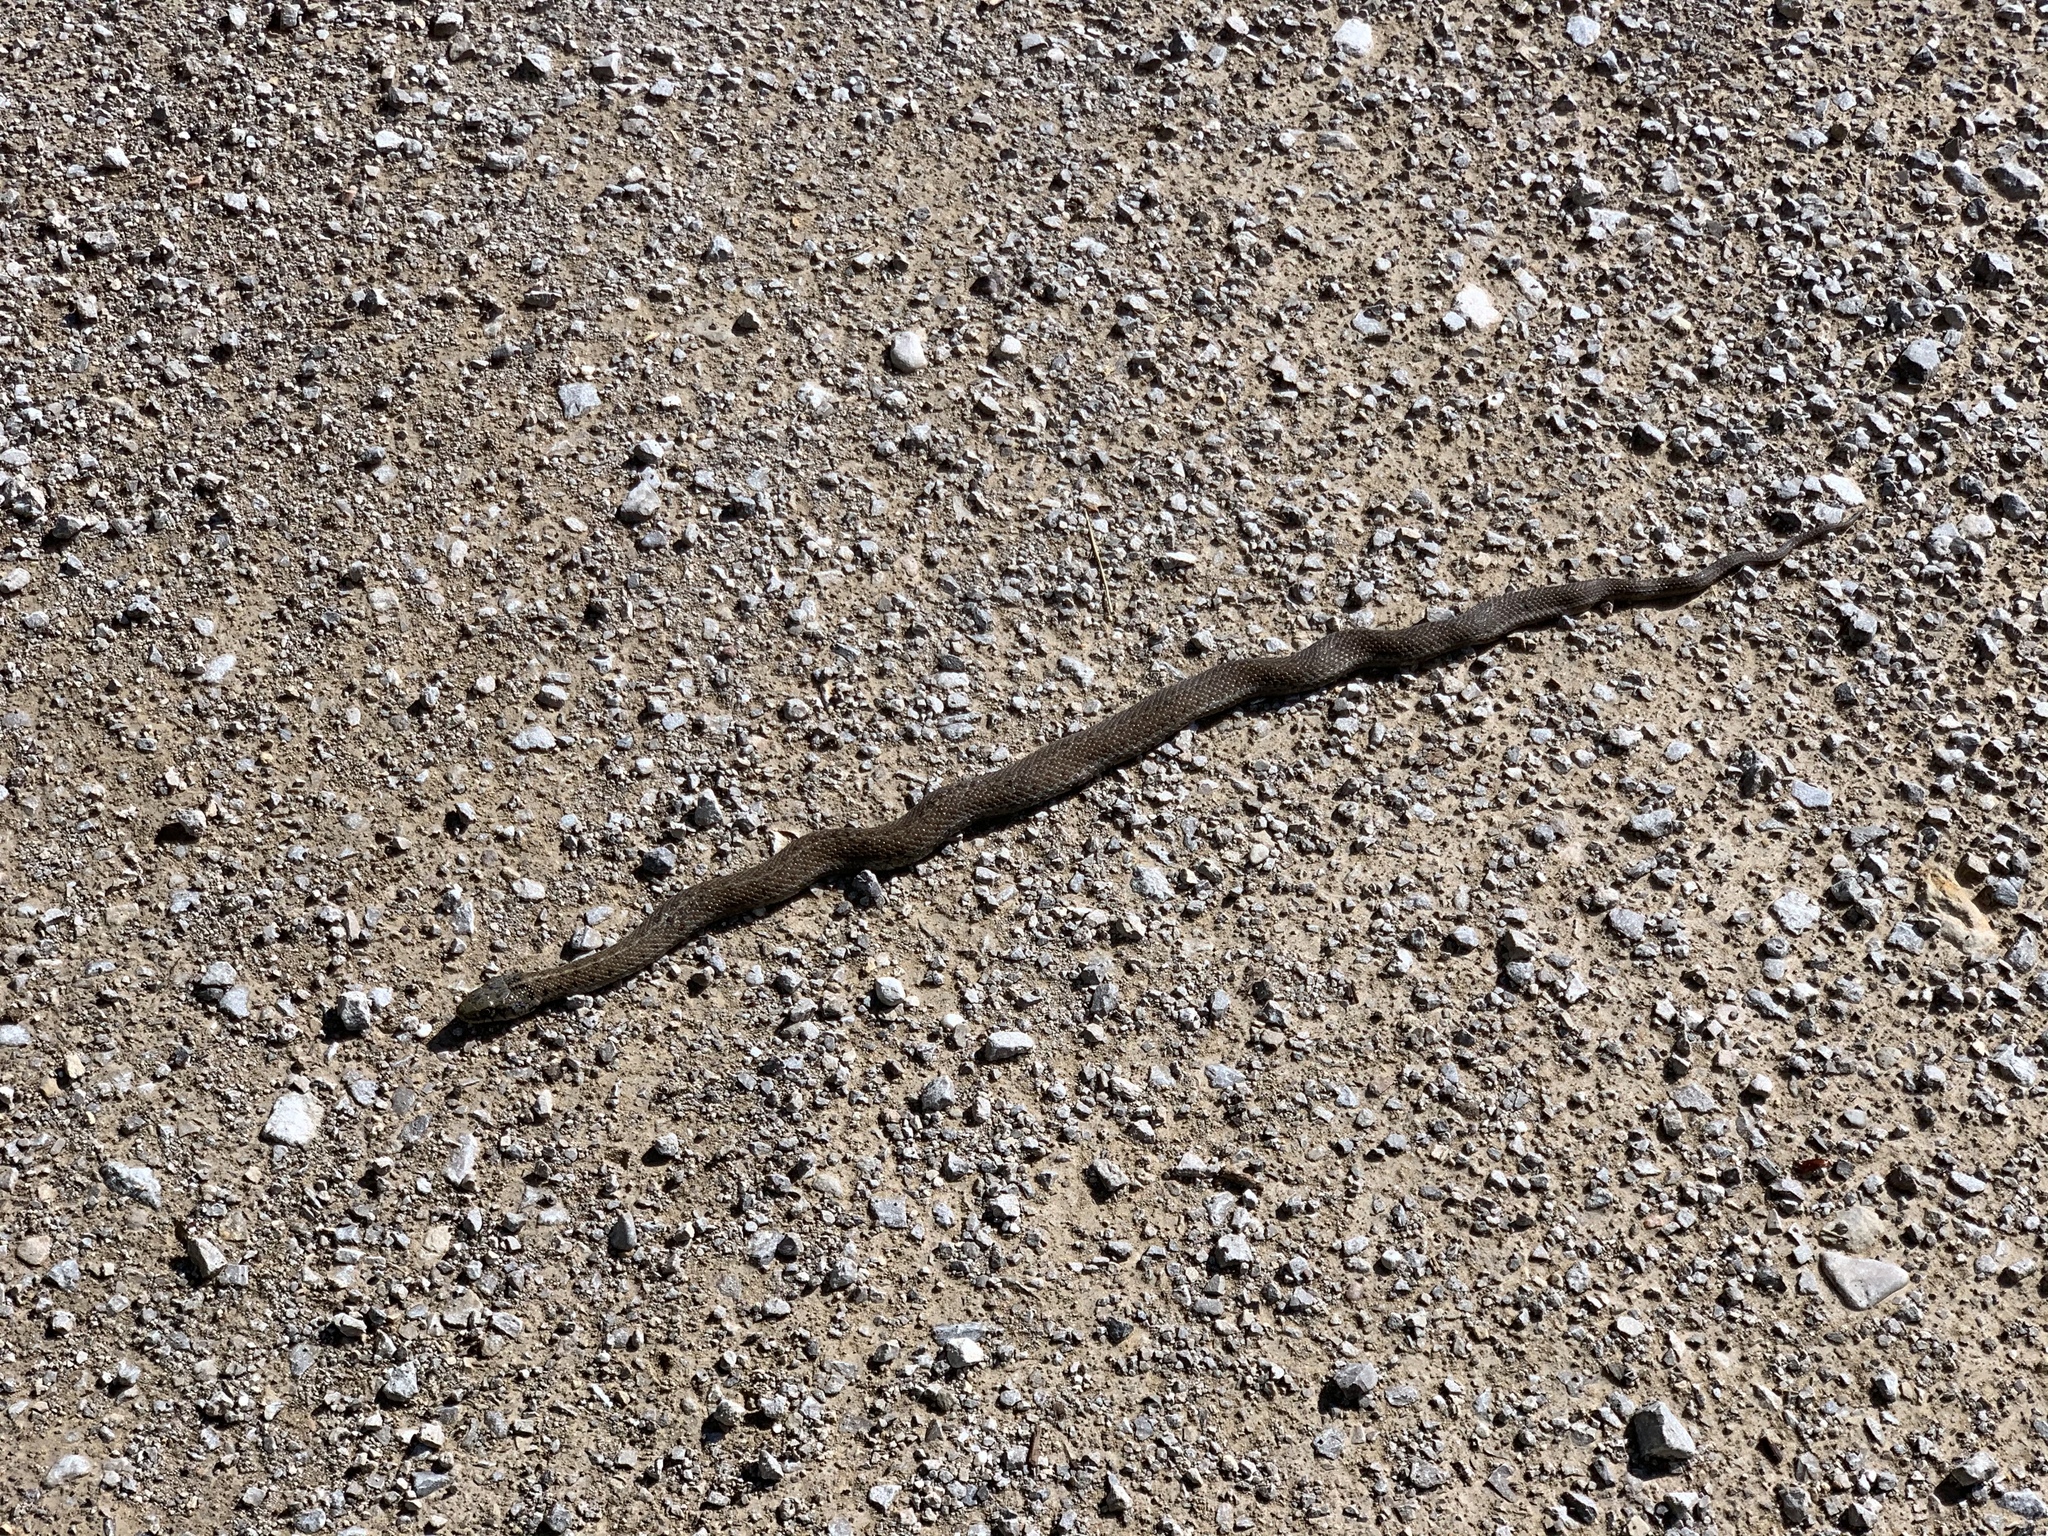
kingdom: Animalia
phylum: Chordata
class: Squamata
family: Colubridae
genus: Thamnophis
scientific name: Thamnophis elegans
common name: Western terrestrial garter snake
